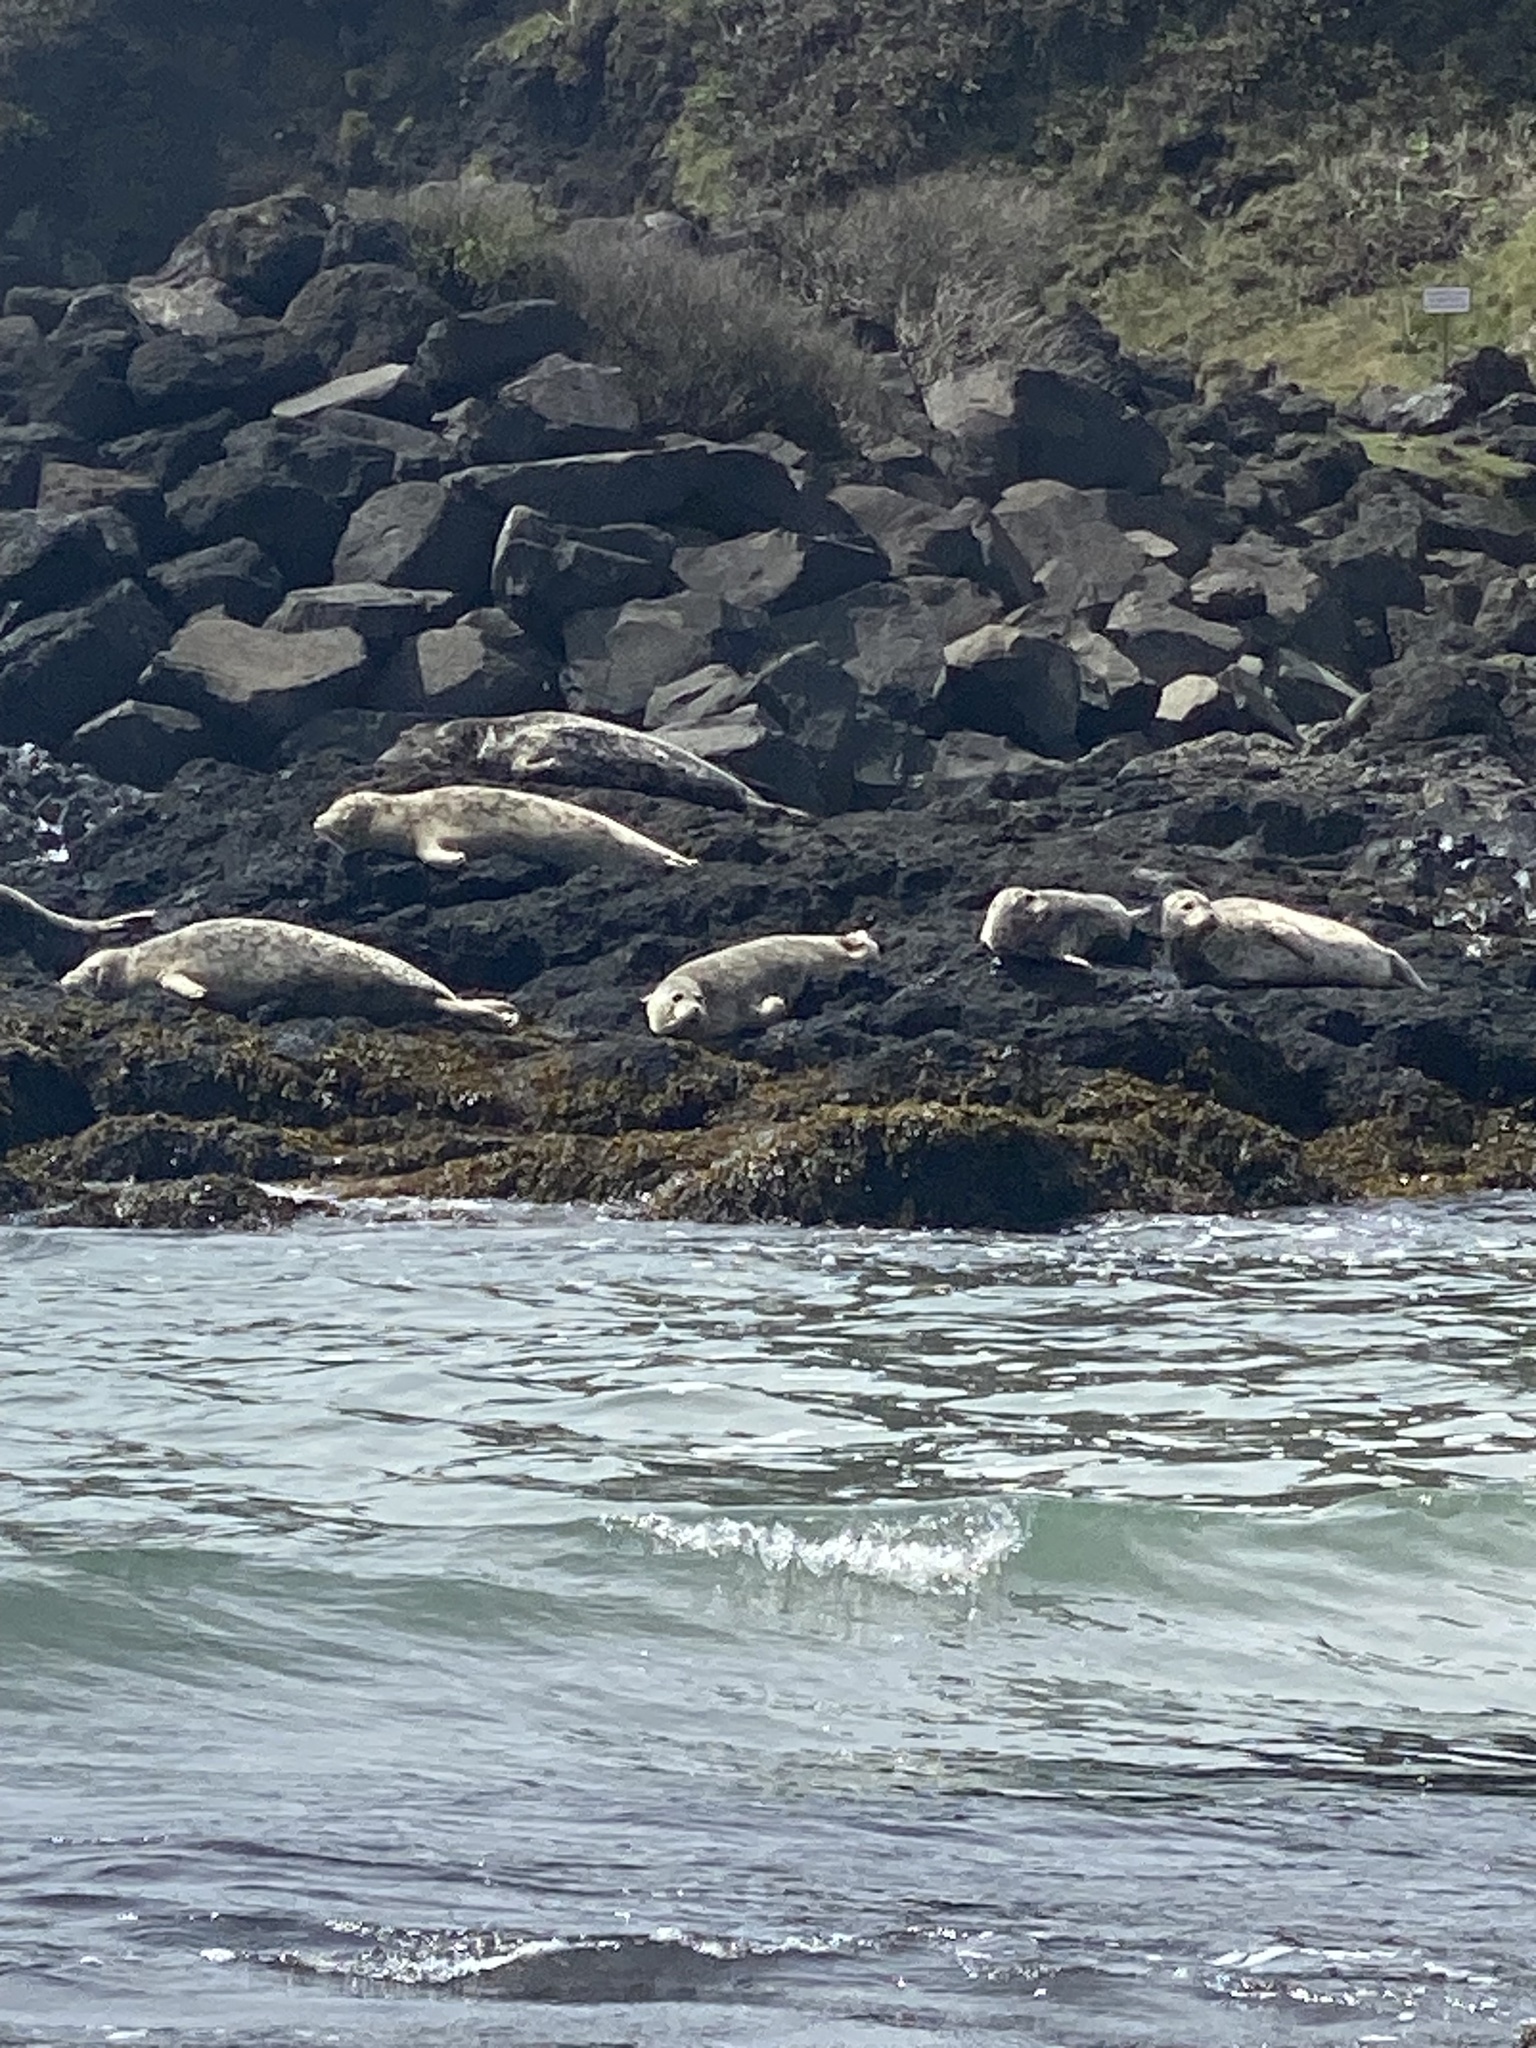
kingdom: Animalia
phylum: Chordata
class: Mammalia
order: Carnivora
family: Phocidae
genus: Phoca
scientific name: Phoca vitulina
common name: Harbor seal
